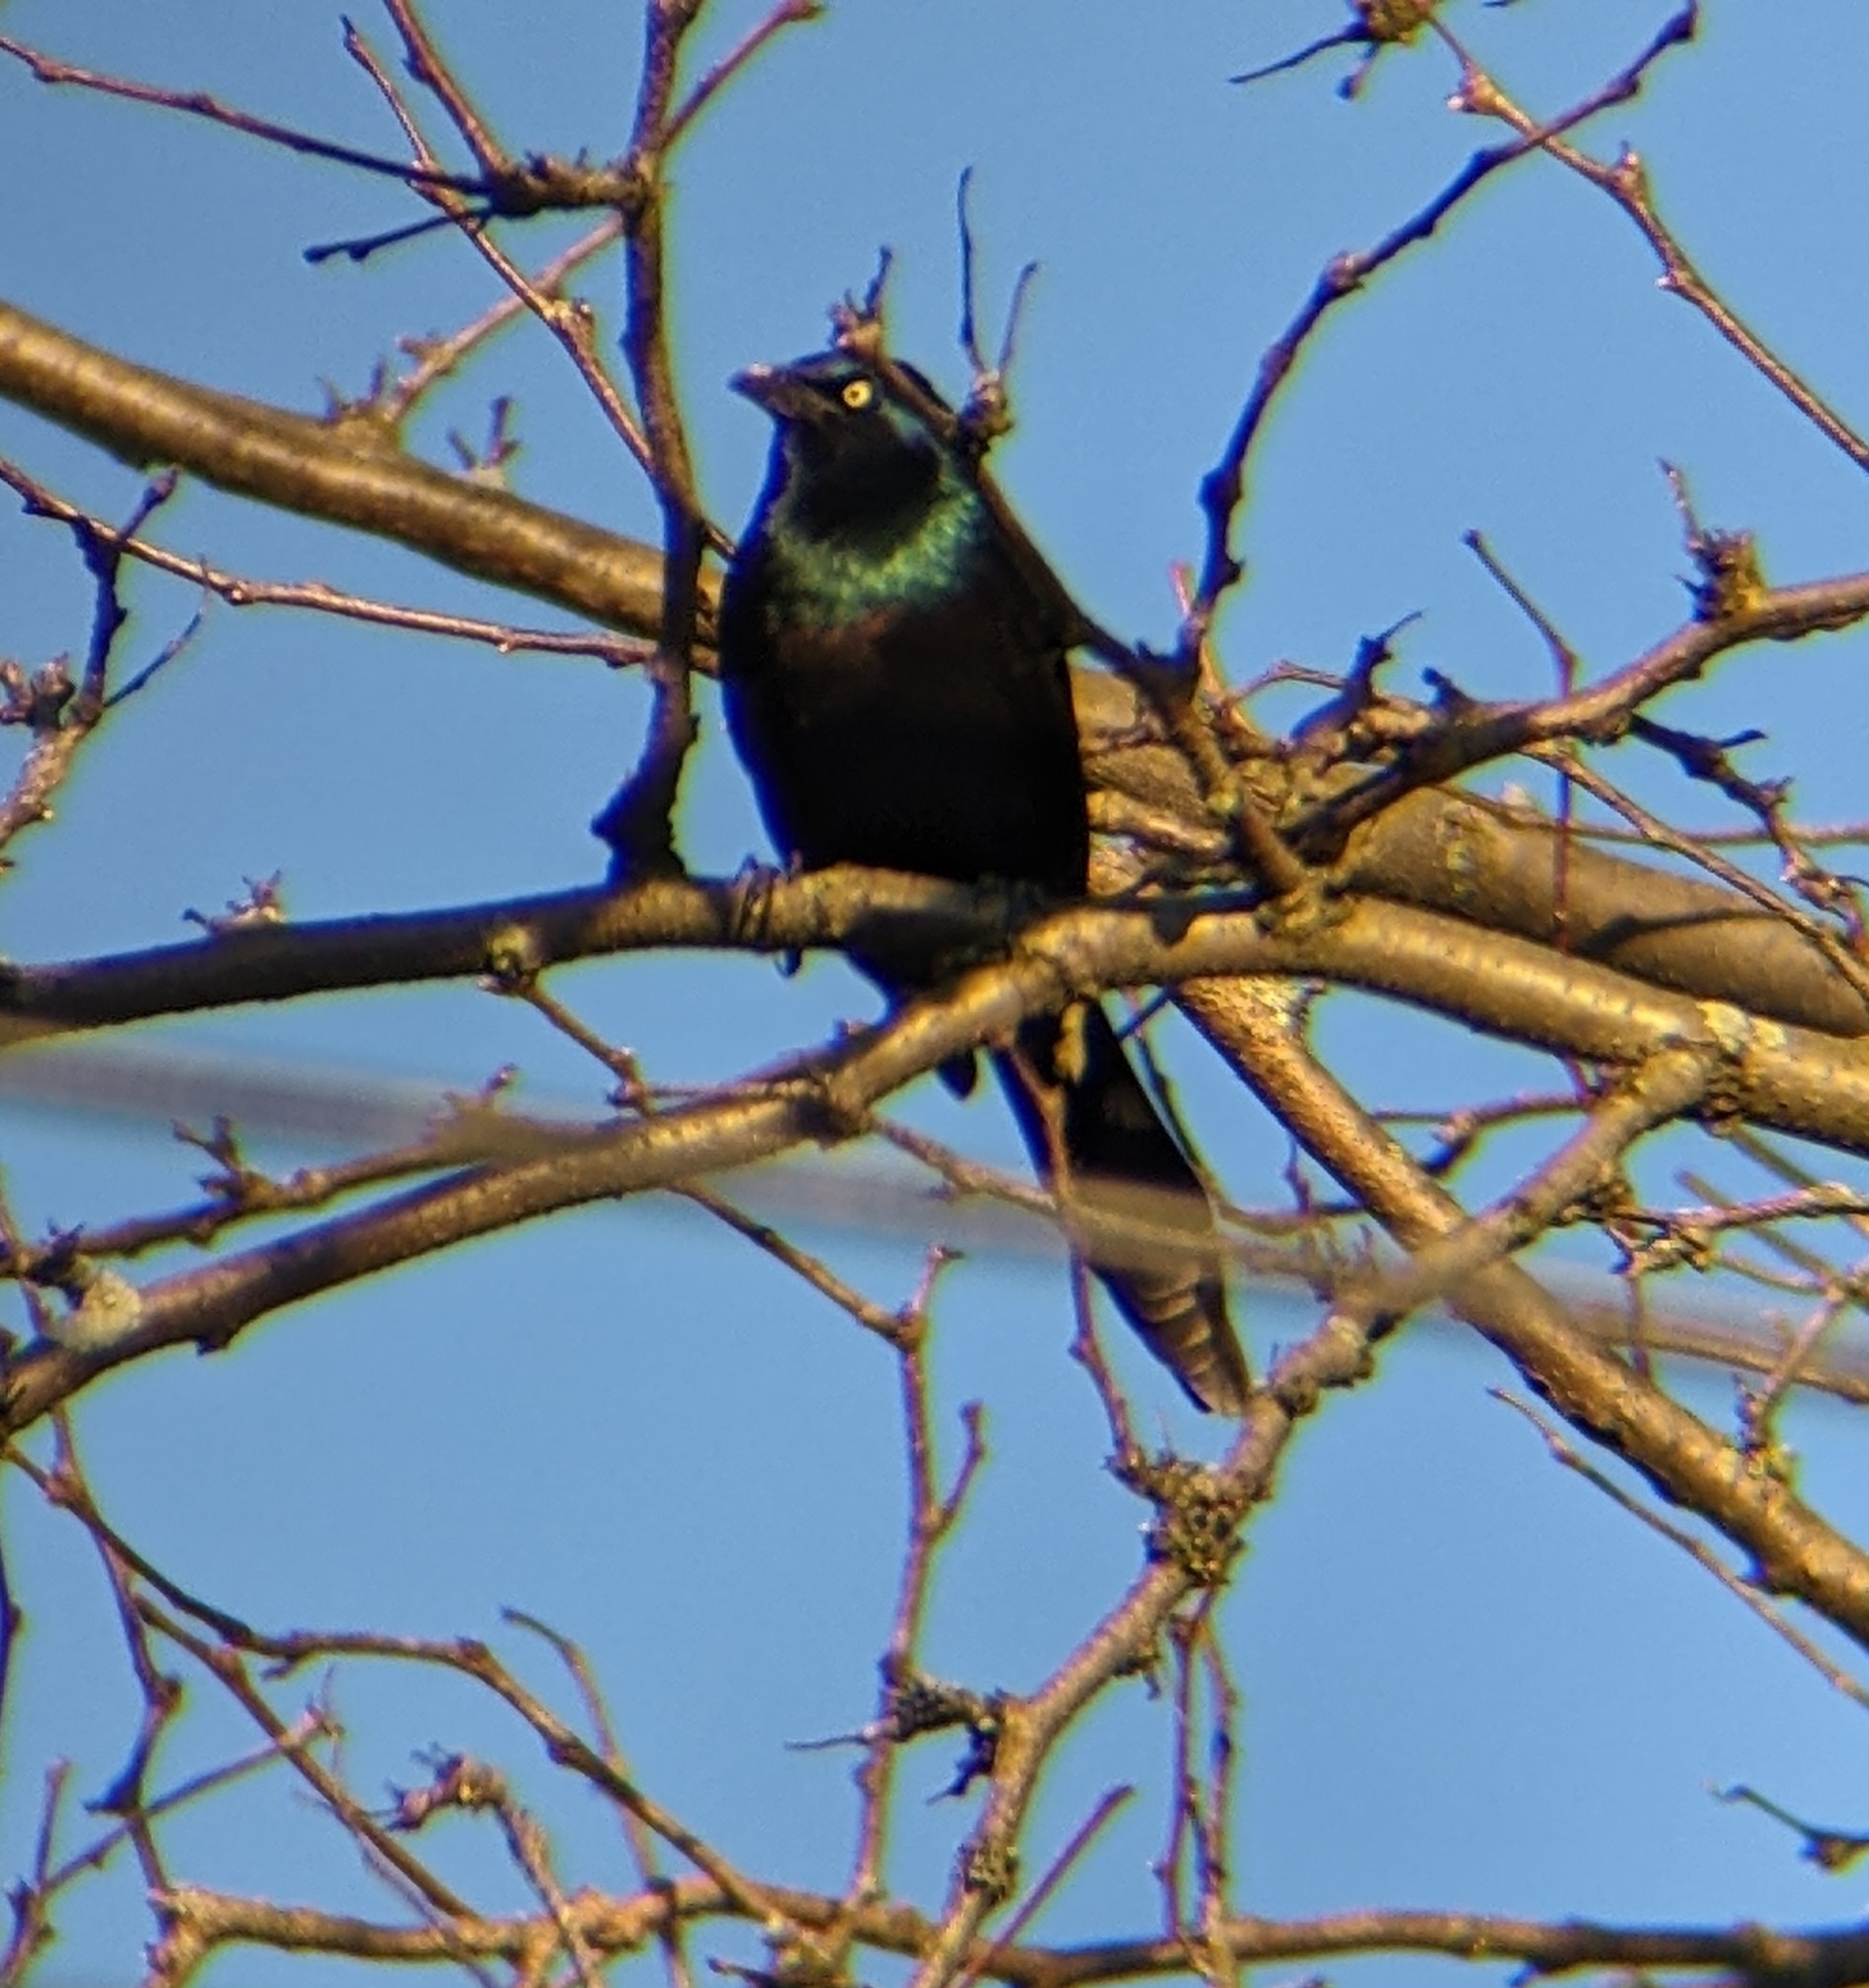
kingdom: Animalia
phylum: Chordata
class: Aves
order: Passeriformes
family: Icteridae
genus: Quiscalus
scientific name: Quiscalus quiscula
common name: Common grackle
